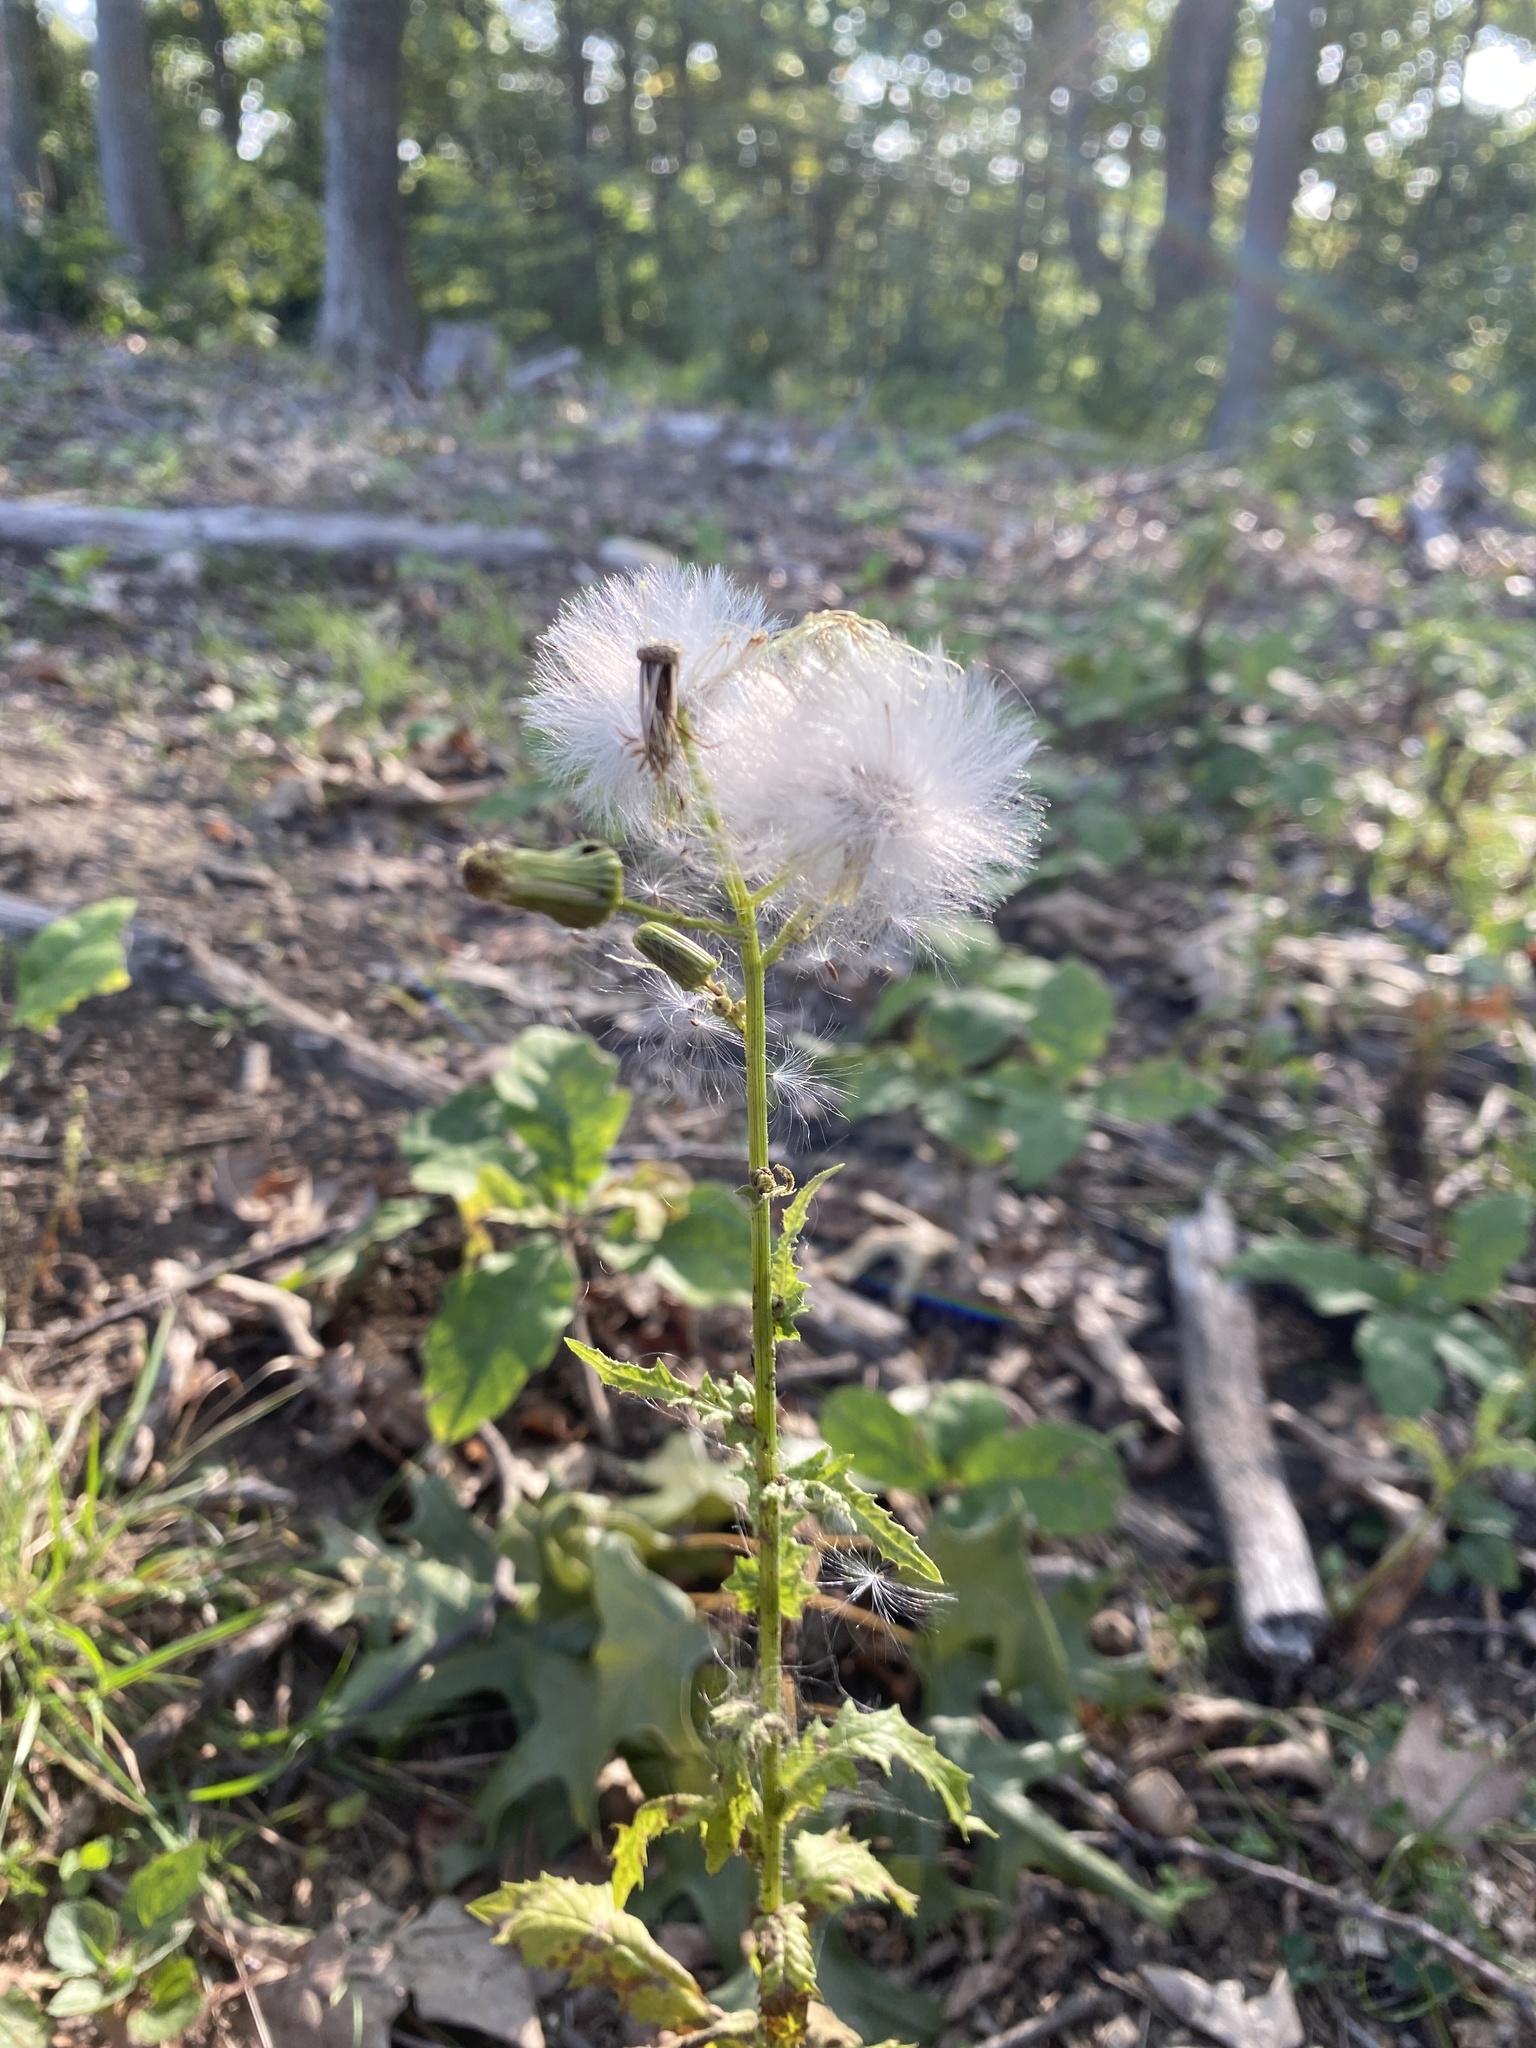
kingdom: Plantae
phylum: Tracheophyta
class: Magnoliopsida
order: Asterales
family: Asteraceae
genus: Erechtites
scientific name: Erechtites hieraciifolius
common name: American burnweed
